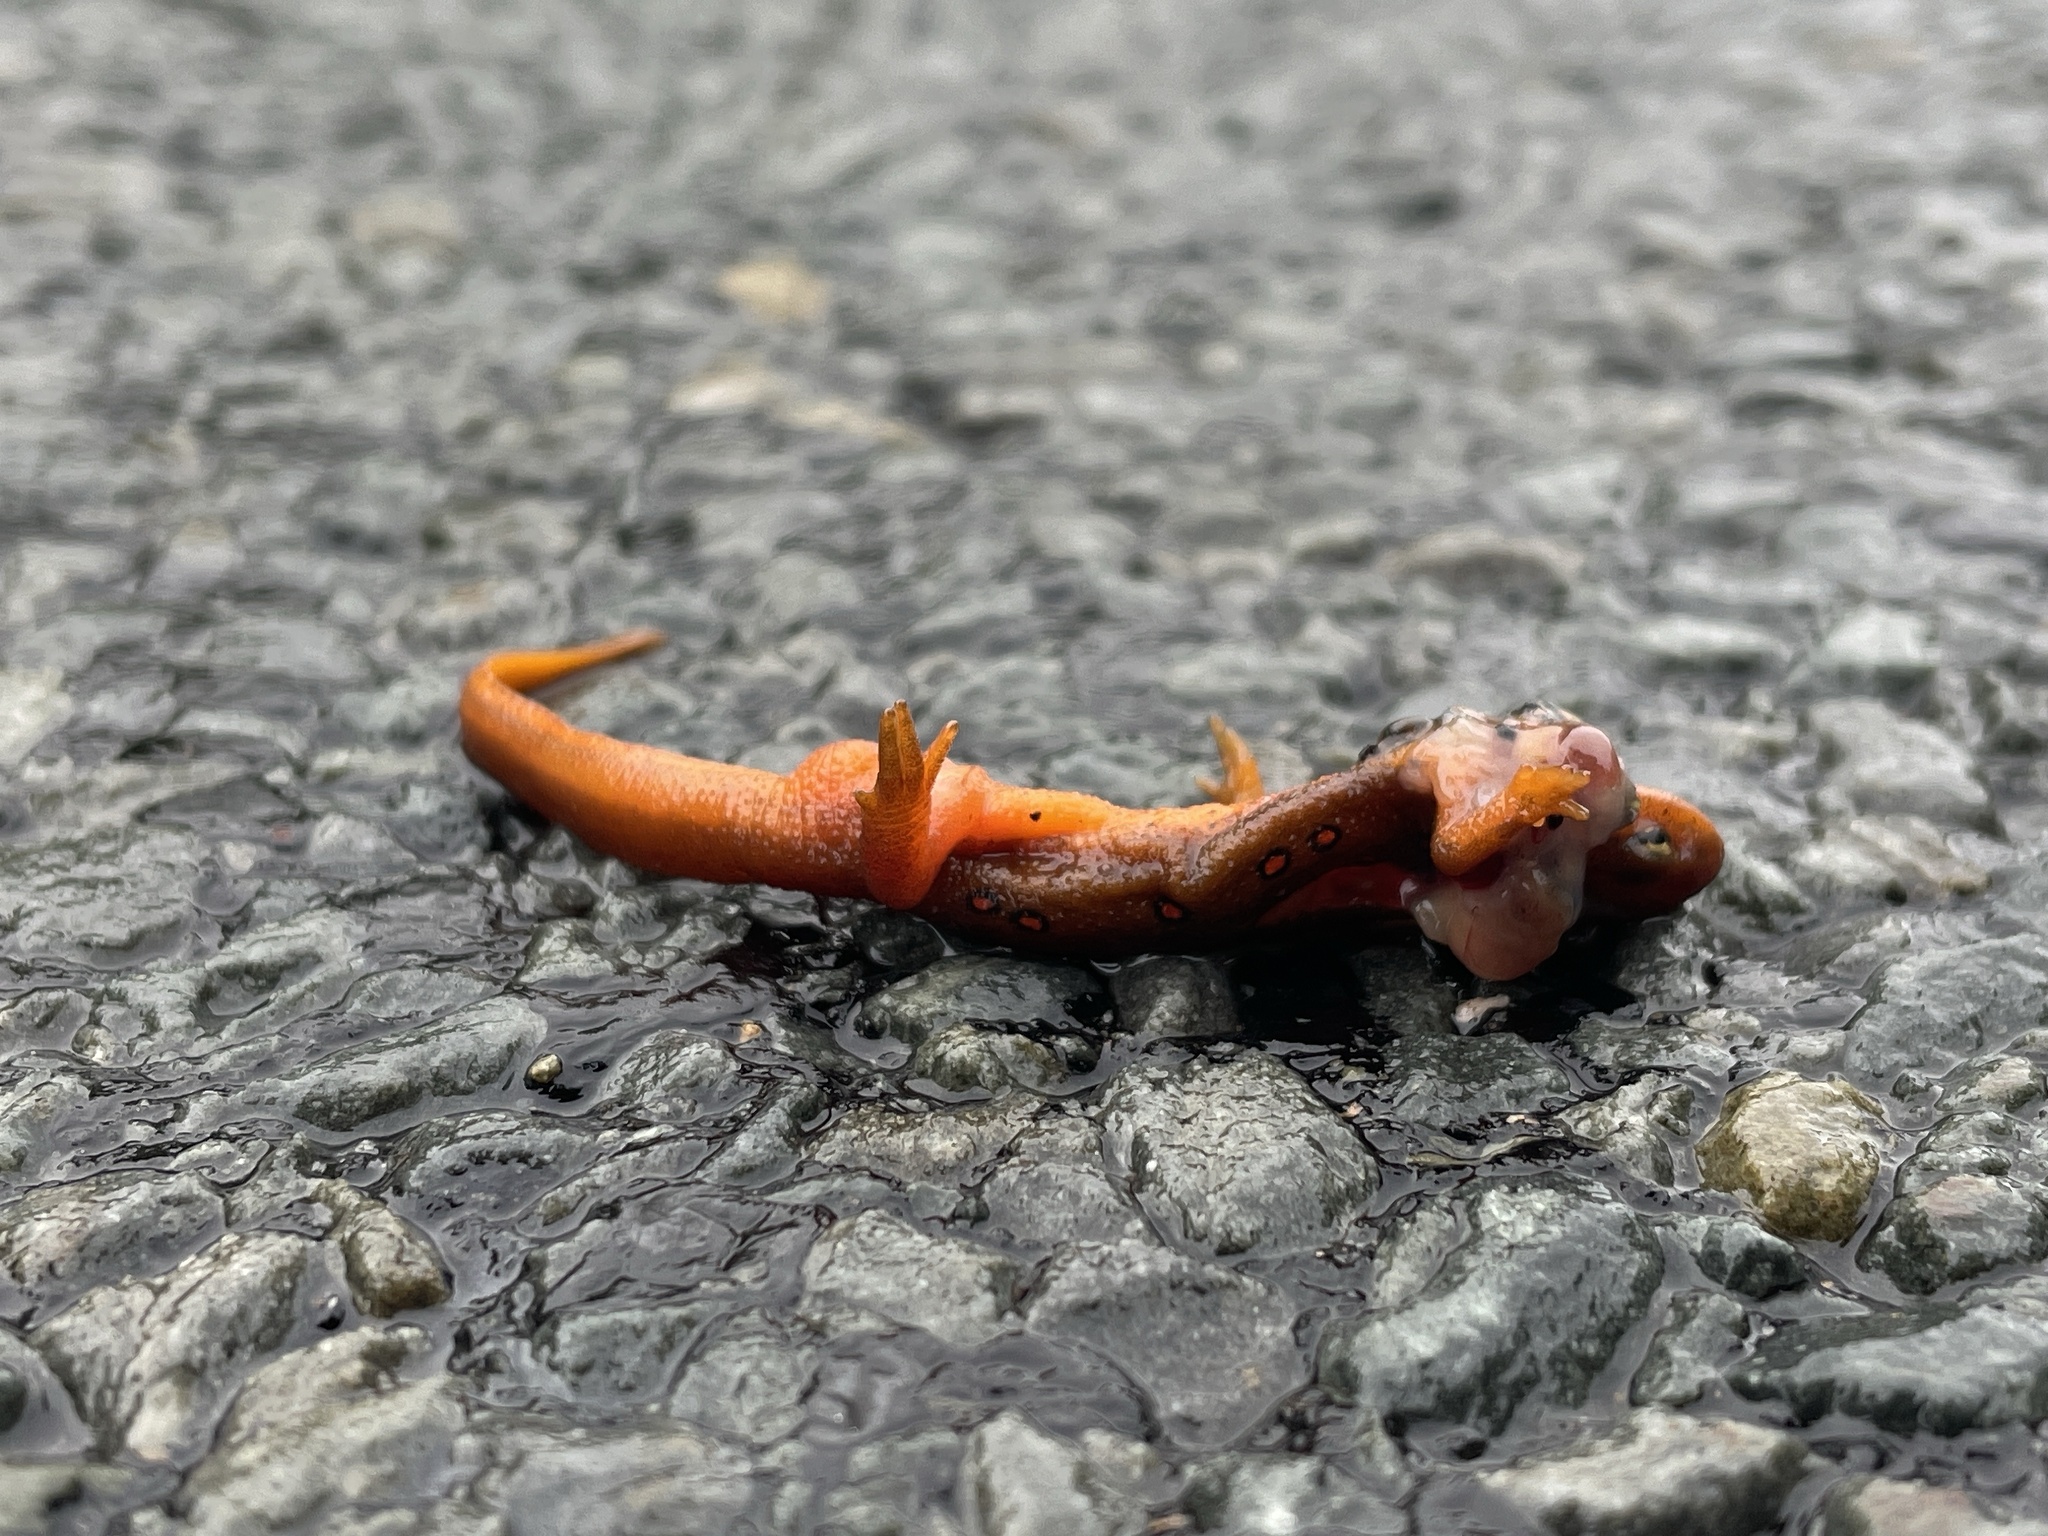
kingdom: Animalia
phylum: Chordata
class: Amphibia
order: Caudata
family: Salamandridae
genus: Notophthalmus
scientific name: Notophthalmus viridescens
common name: Eastern newt
